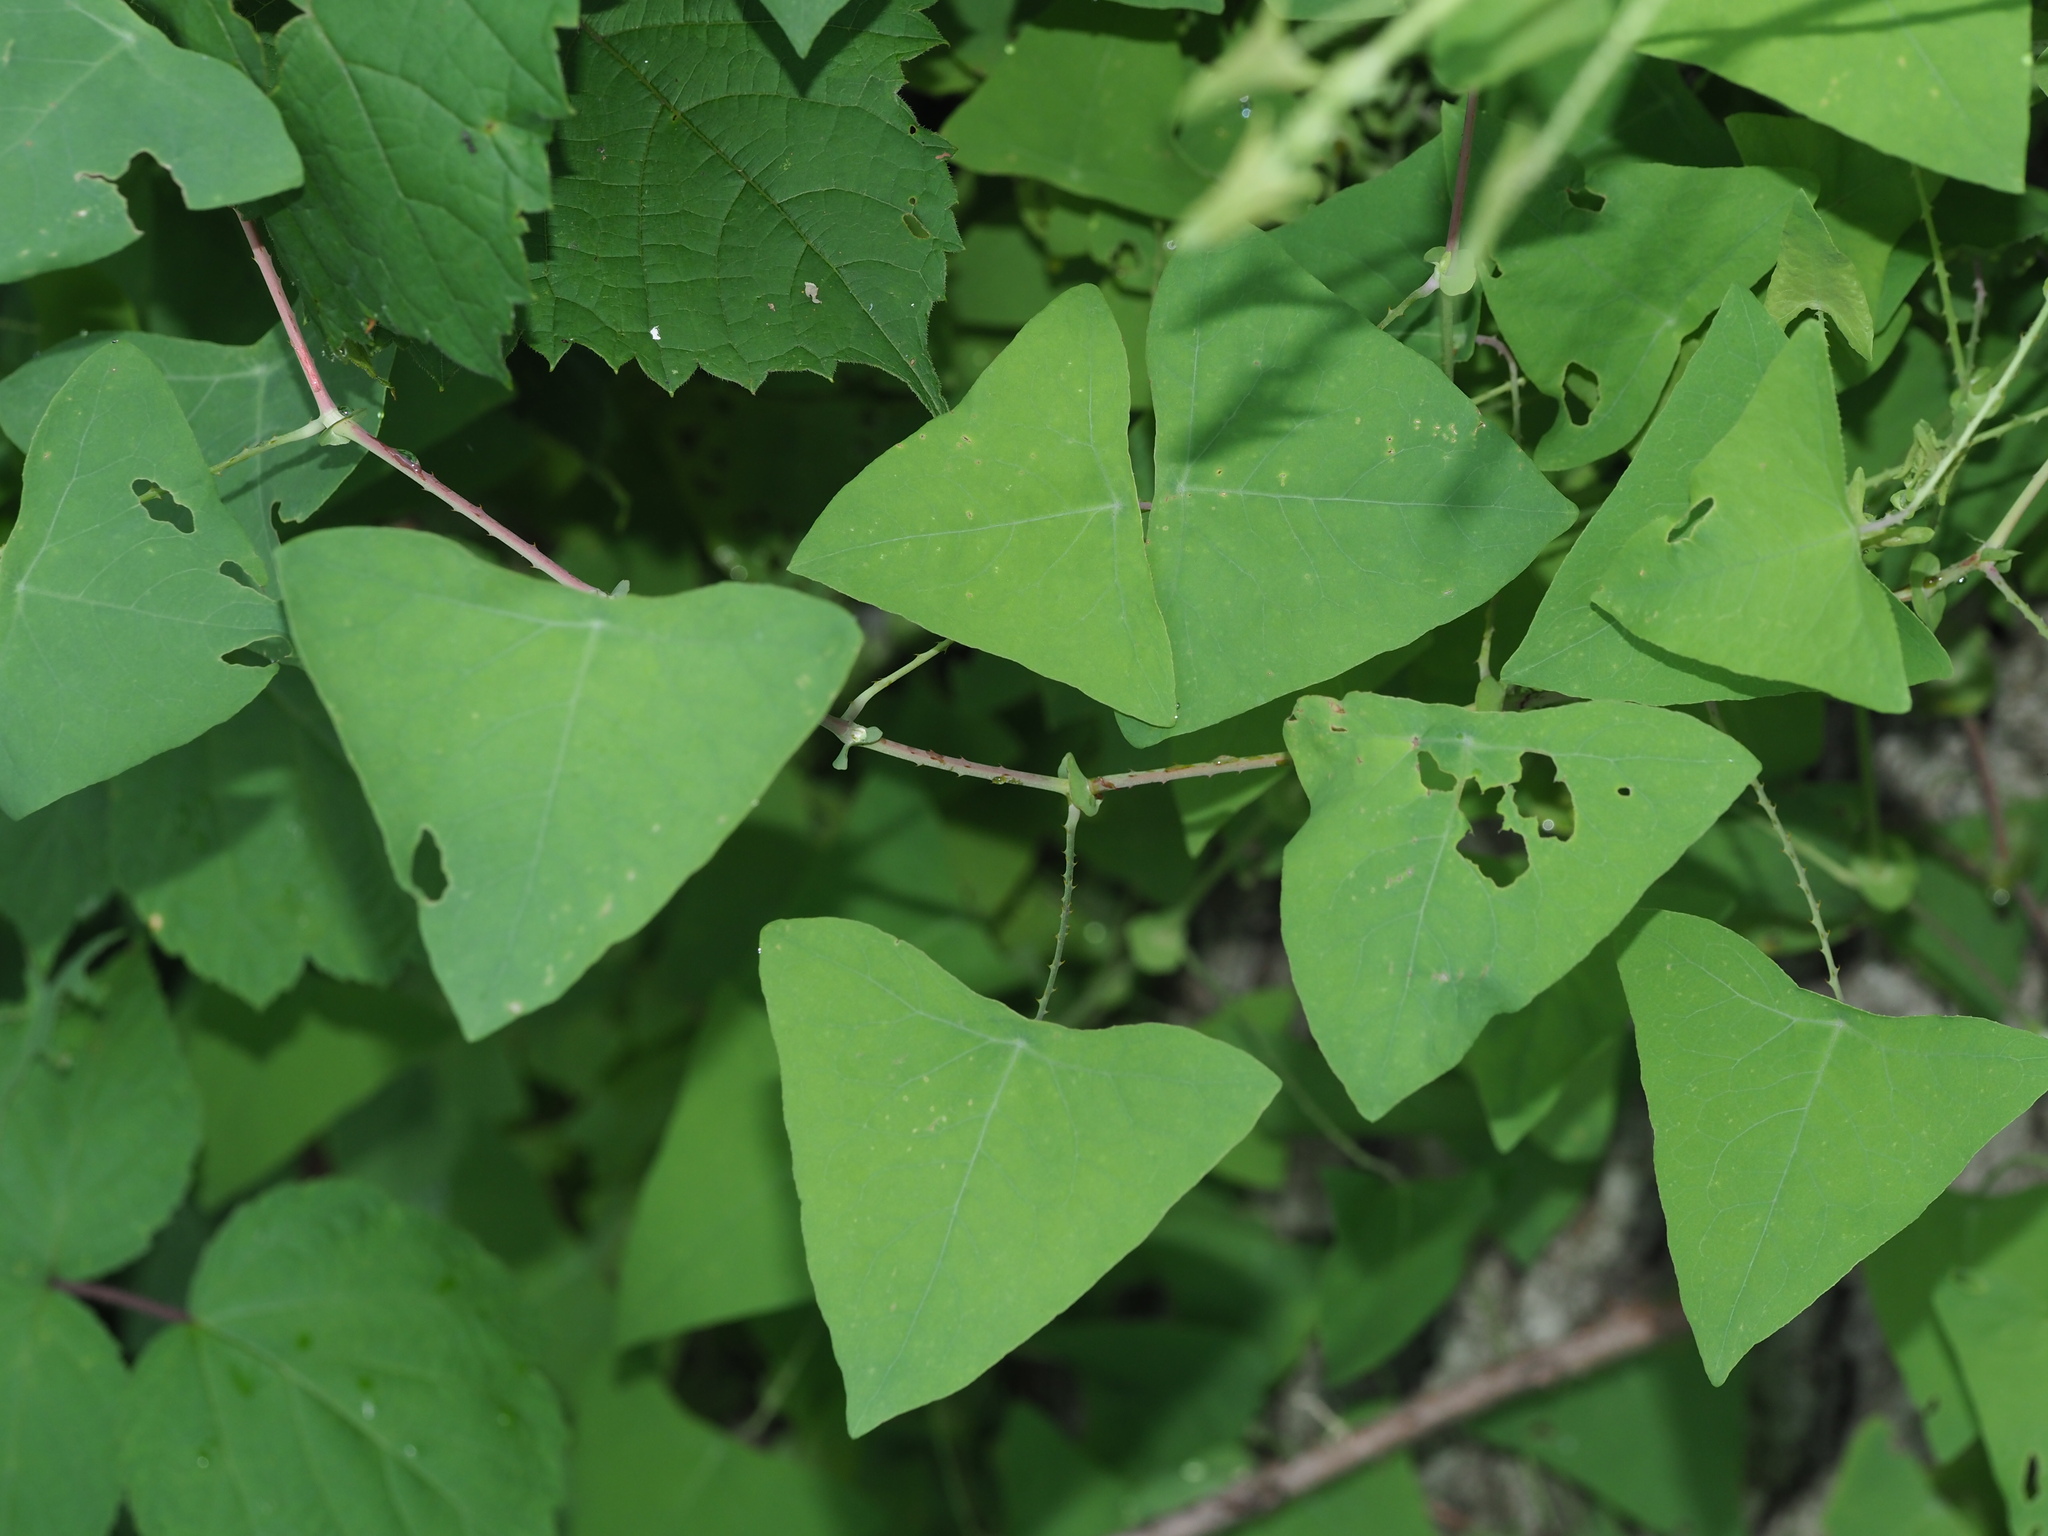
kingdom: Plantae
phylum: Tracheophyta
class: Magnoliopsida
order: Caryophyllales
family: Polygonaceae
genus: Persicaria
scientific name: Persicaria perfoliata
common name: Asiatic tearthumb
